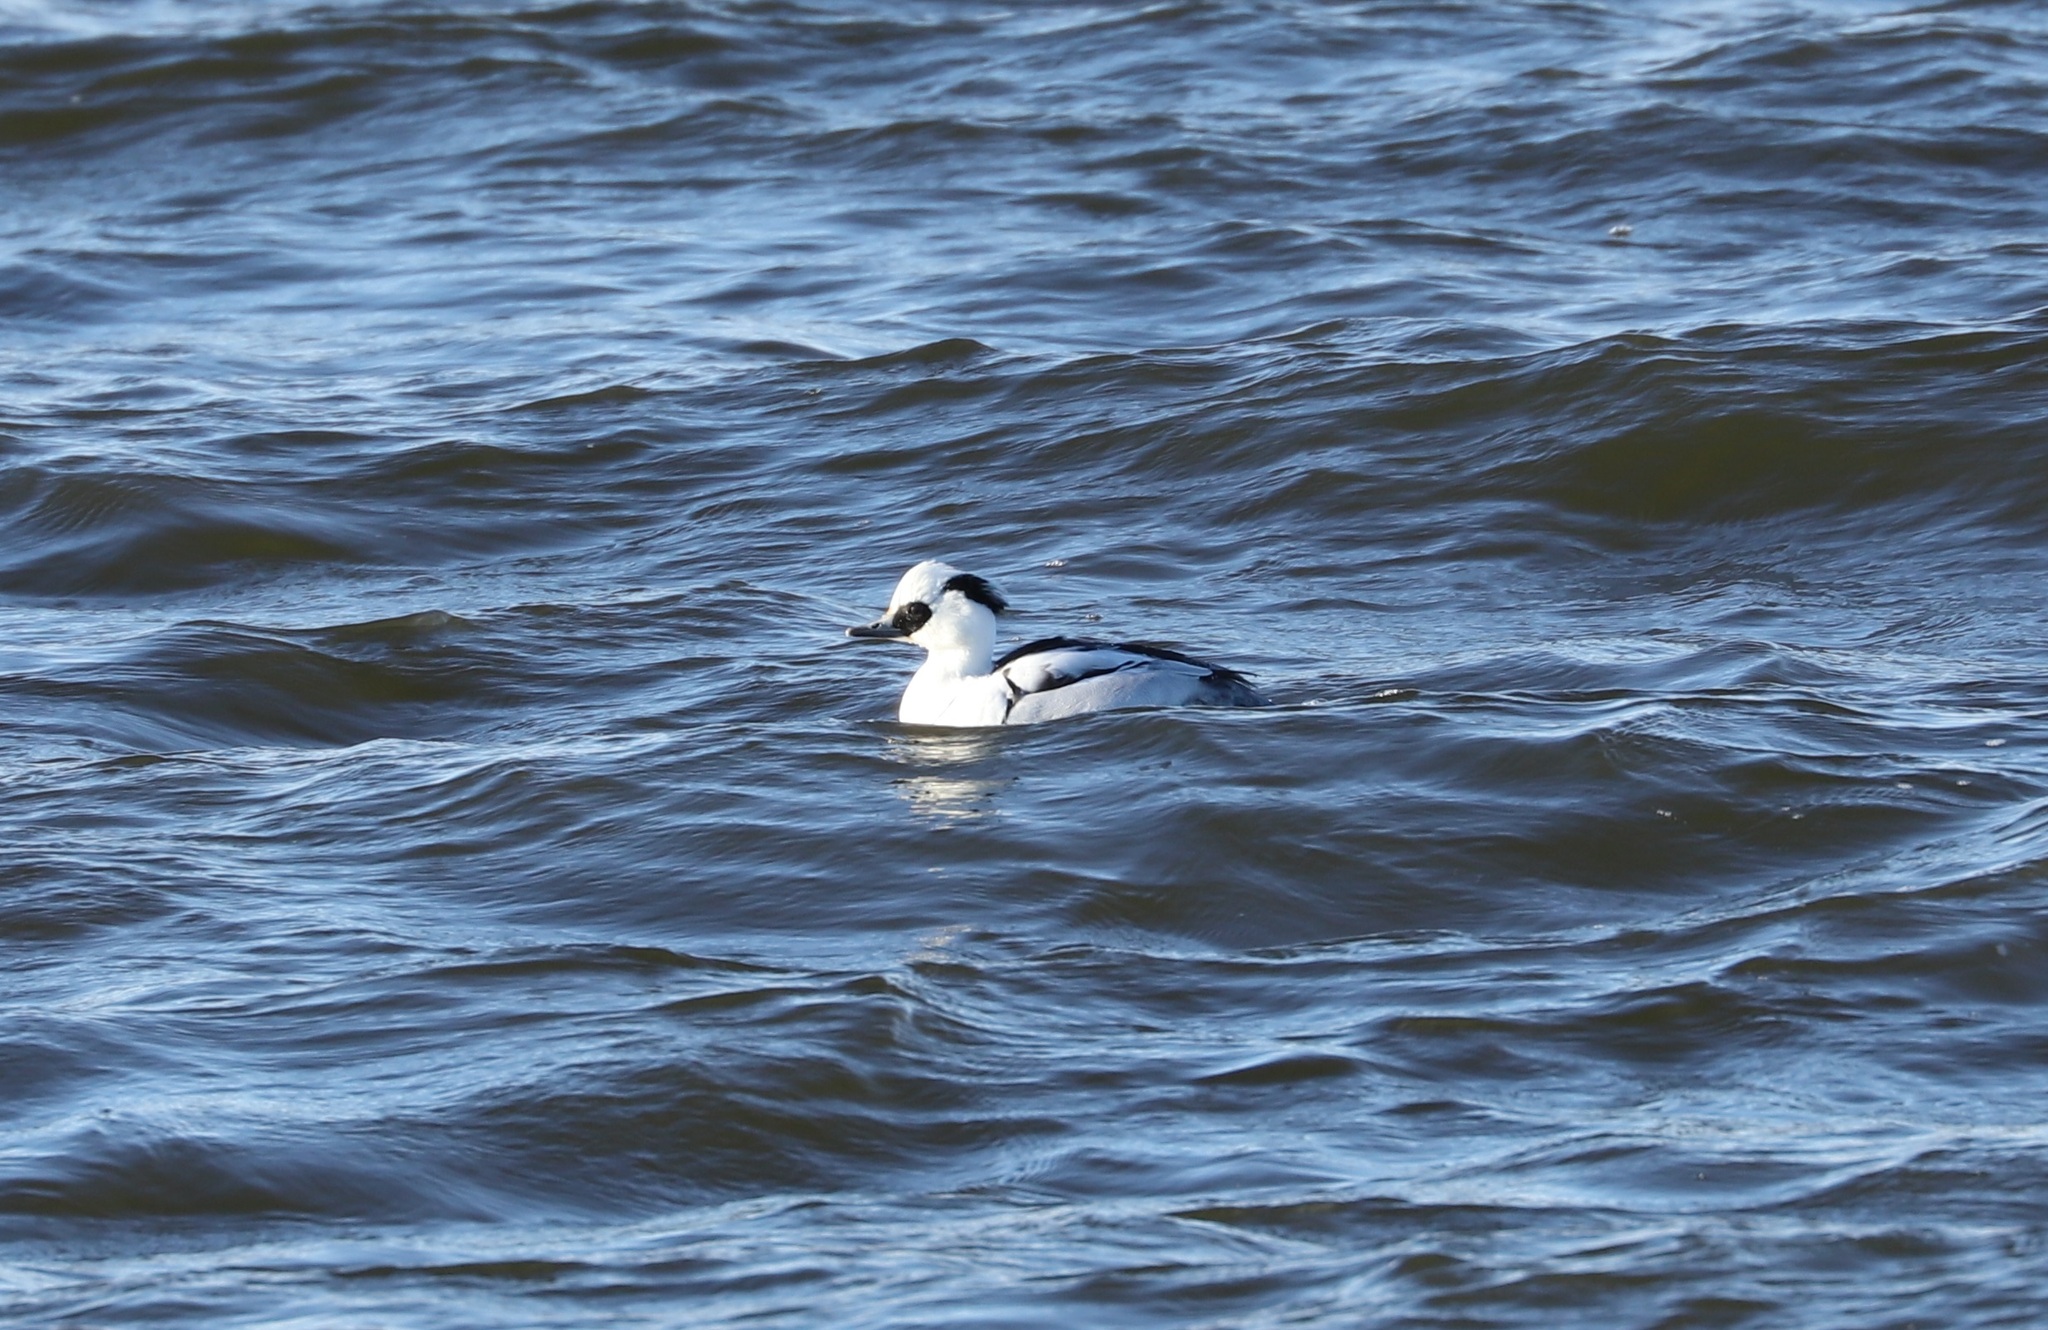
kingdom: Animalia
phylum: Chordata
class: Aves
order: Anseriformes
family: Anatidae
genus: Mergellus
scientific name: Mergellus albellus
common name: Smew
